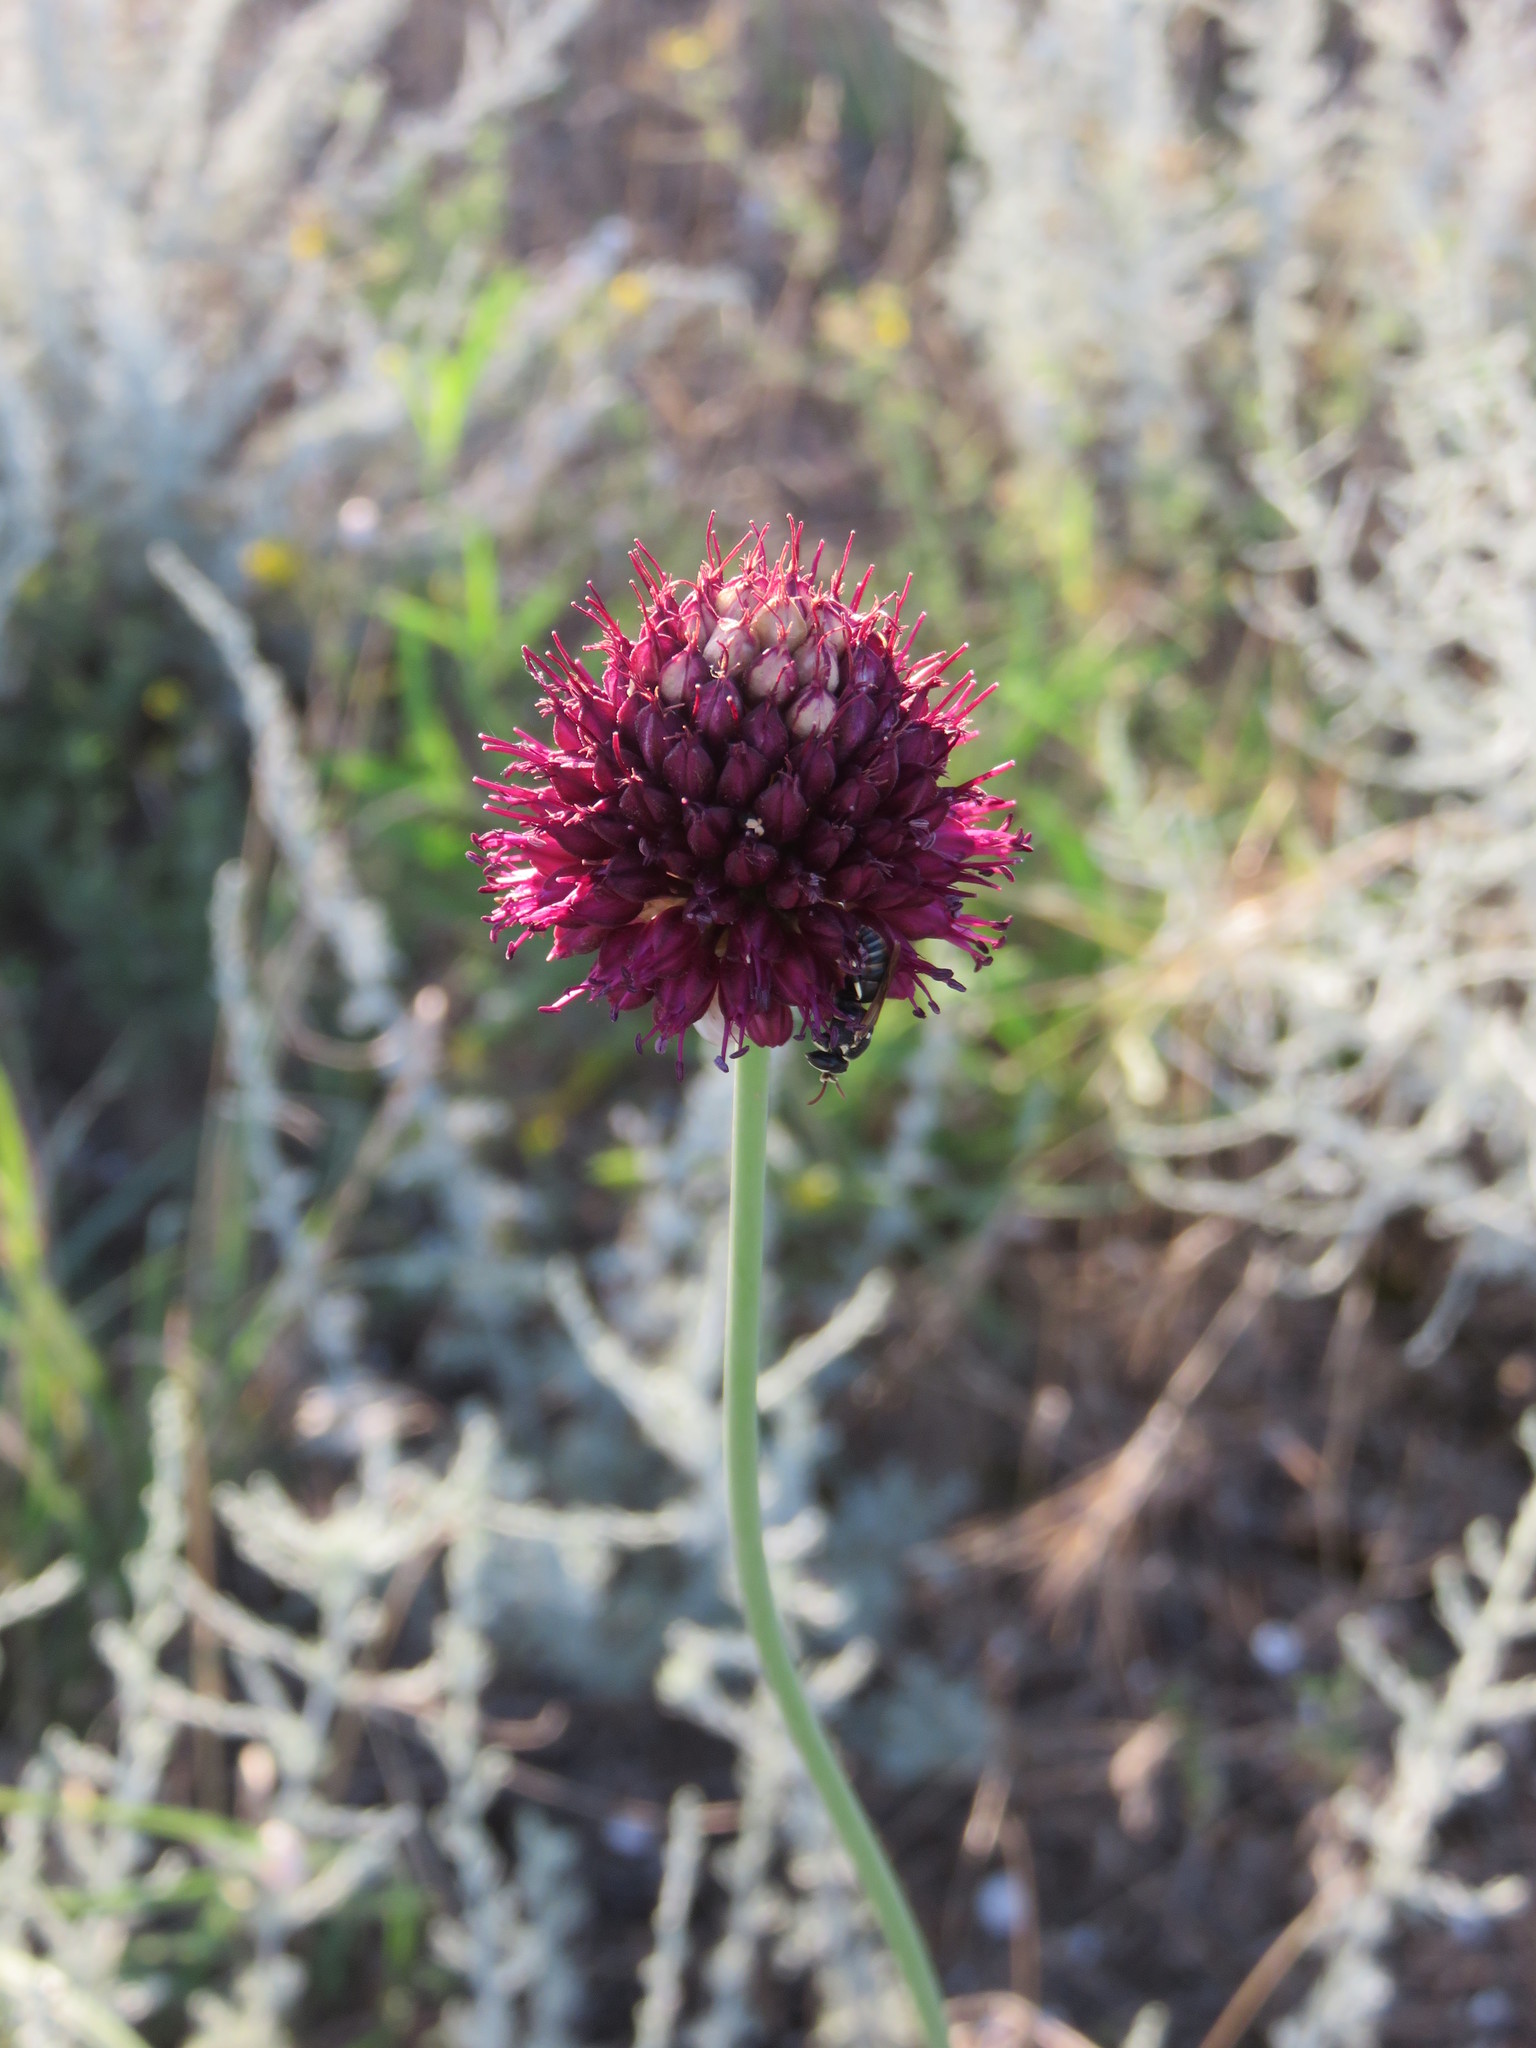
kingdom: Plantae
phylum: Tracheophyta
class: Liliopsida
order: Asparagales
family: Amaryllidaceae
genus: Allium
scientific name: Allium sphaerocephalon
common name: Round-headed leek
